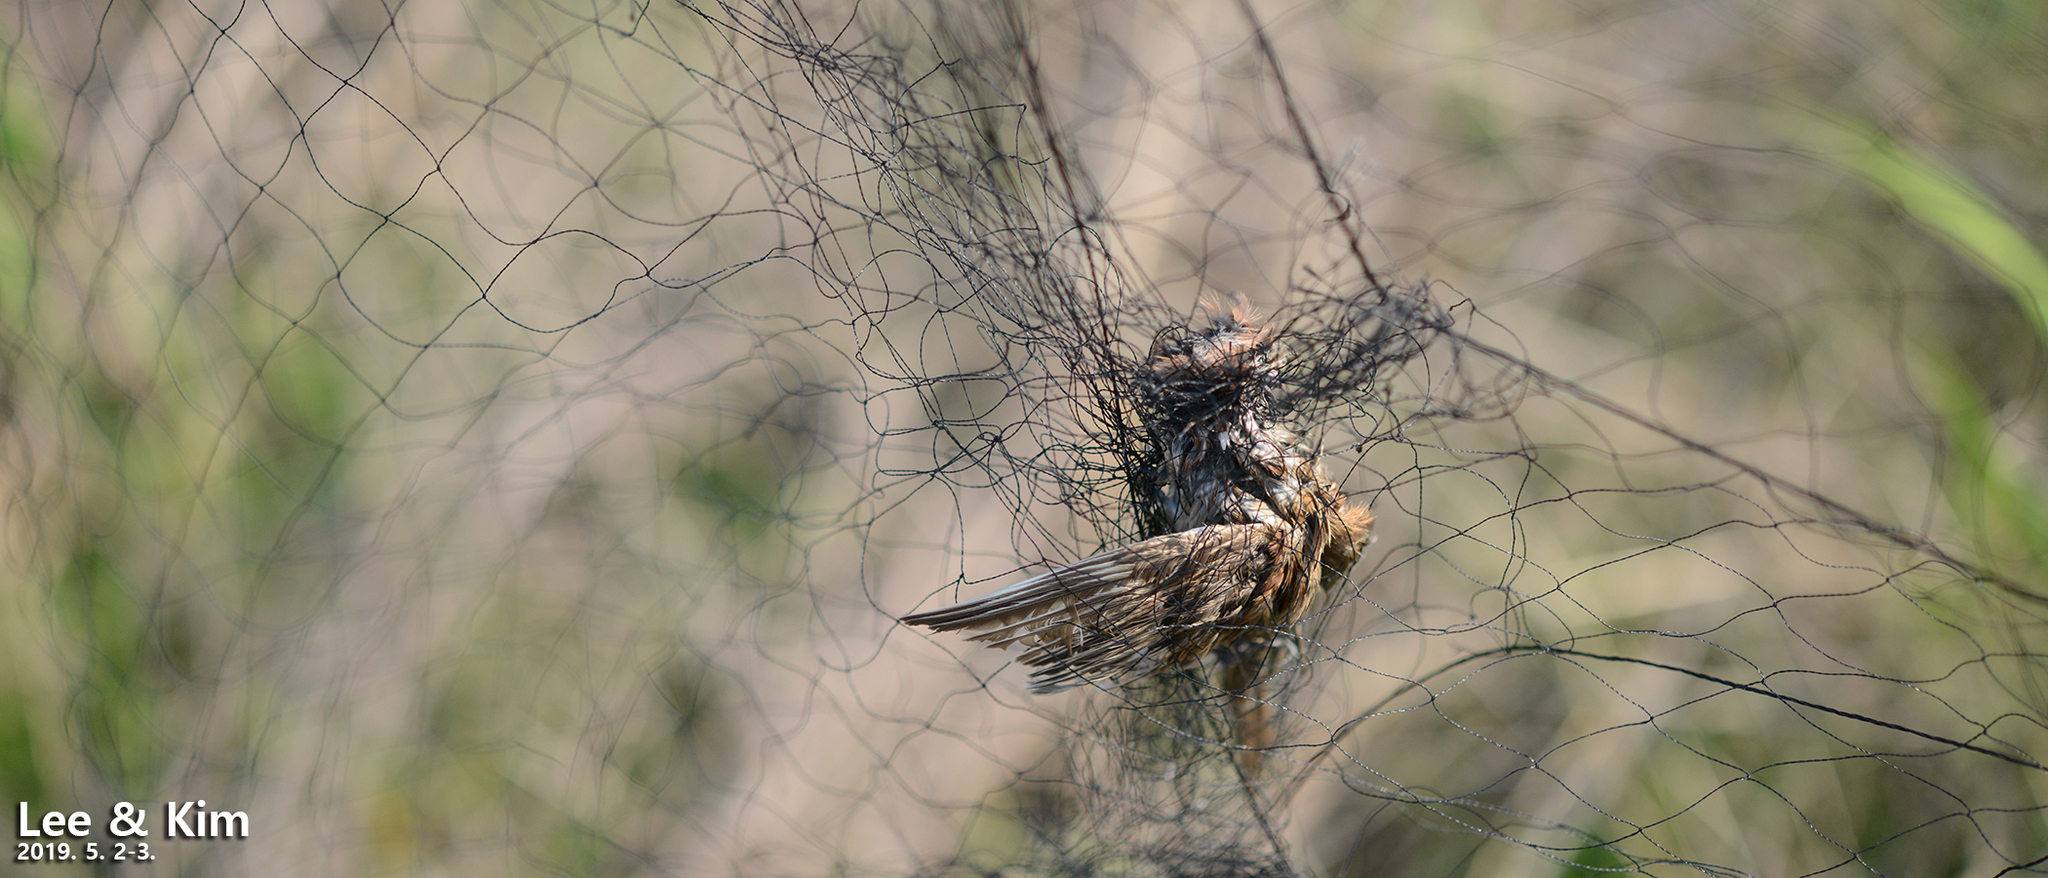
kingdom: Animalia
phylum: Chordata
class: Aves
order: Passeriformes
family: Passeridae
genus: Passer
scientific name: Passer montanus
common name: Eurasian tree sparrow
